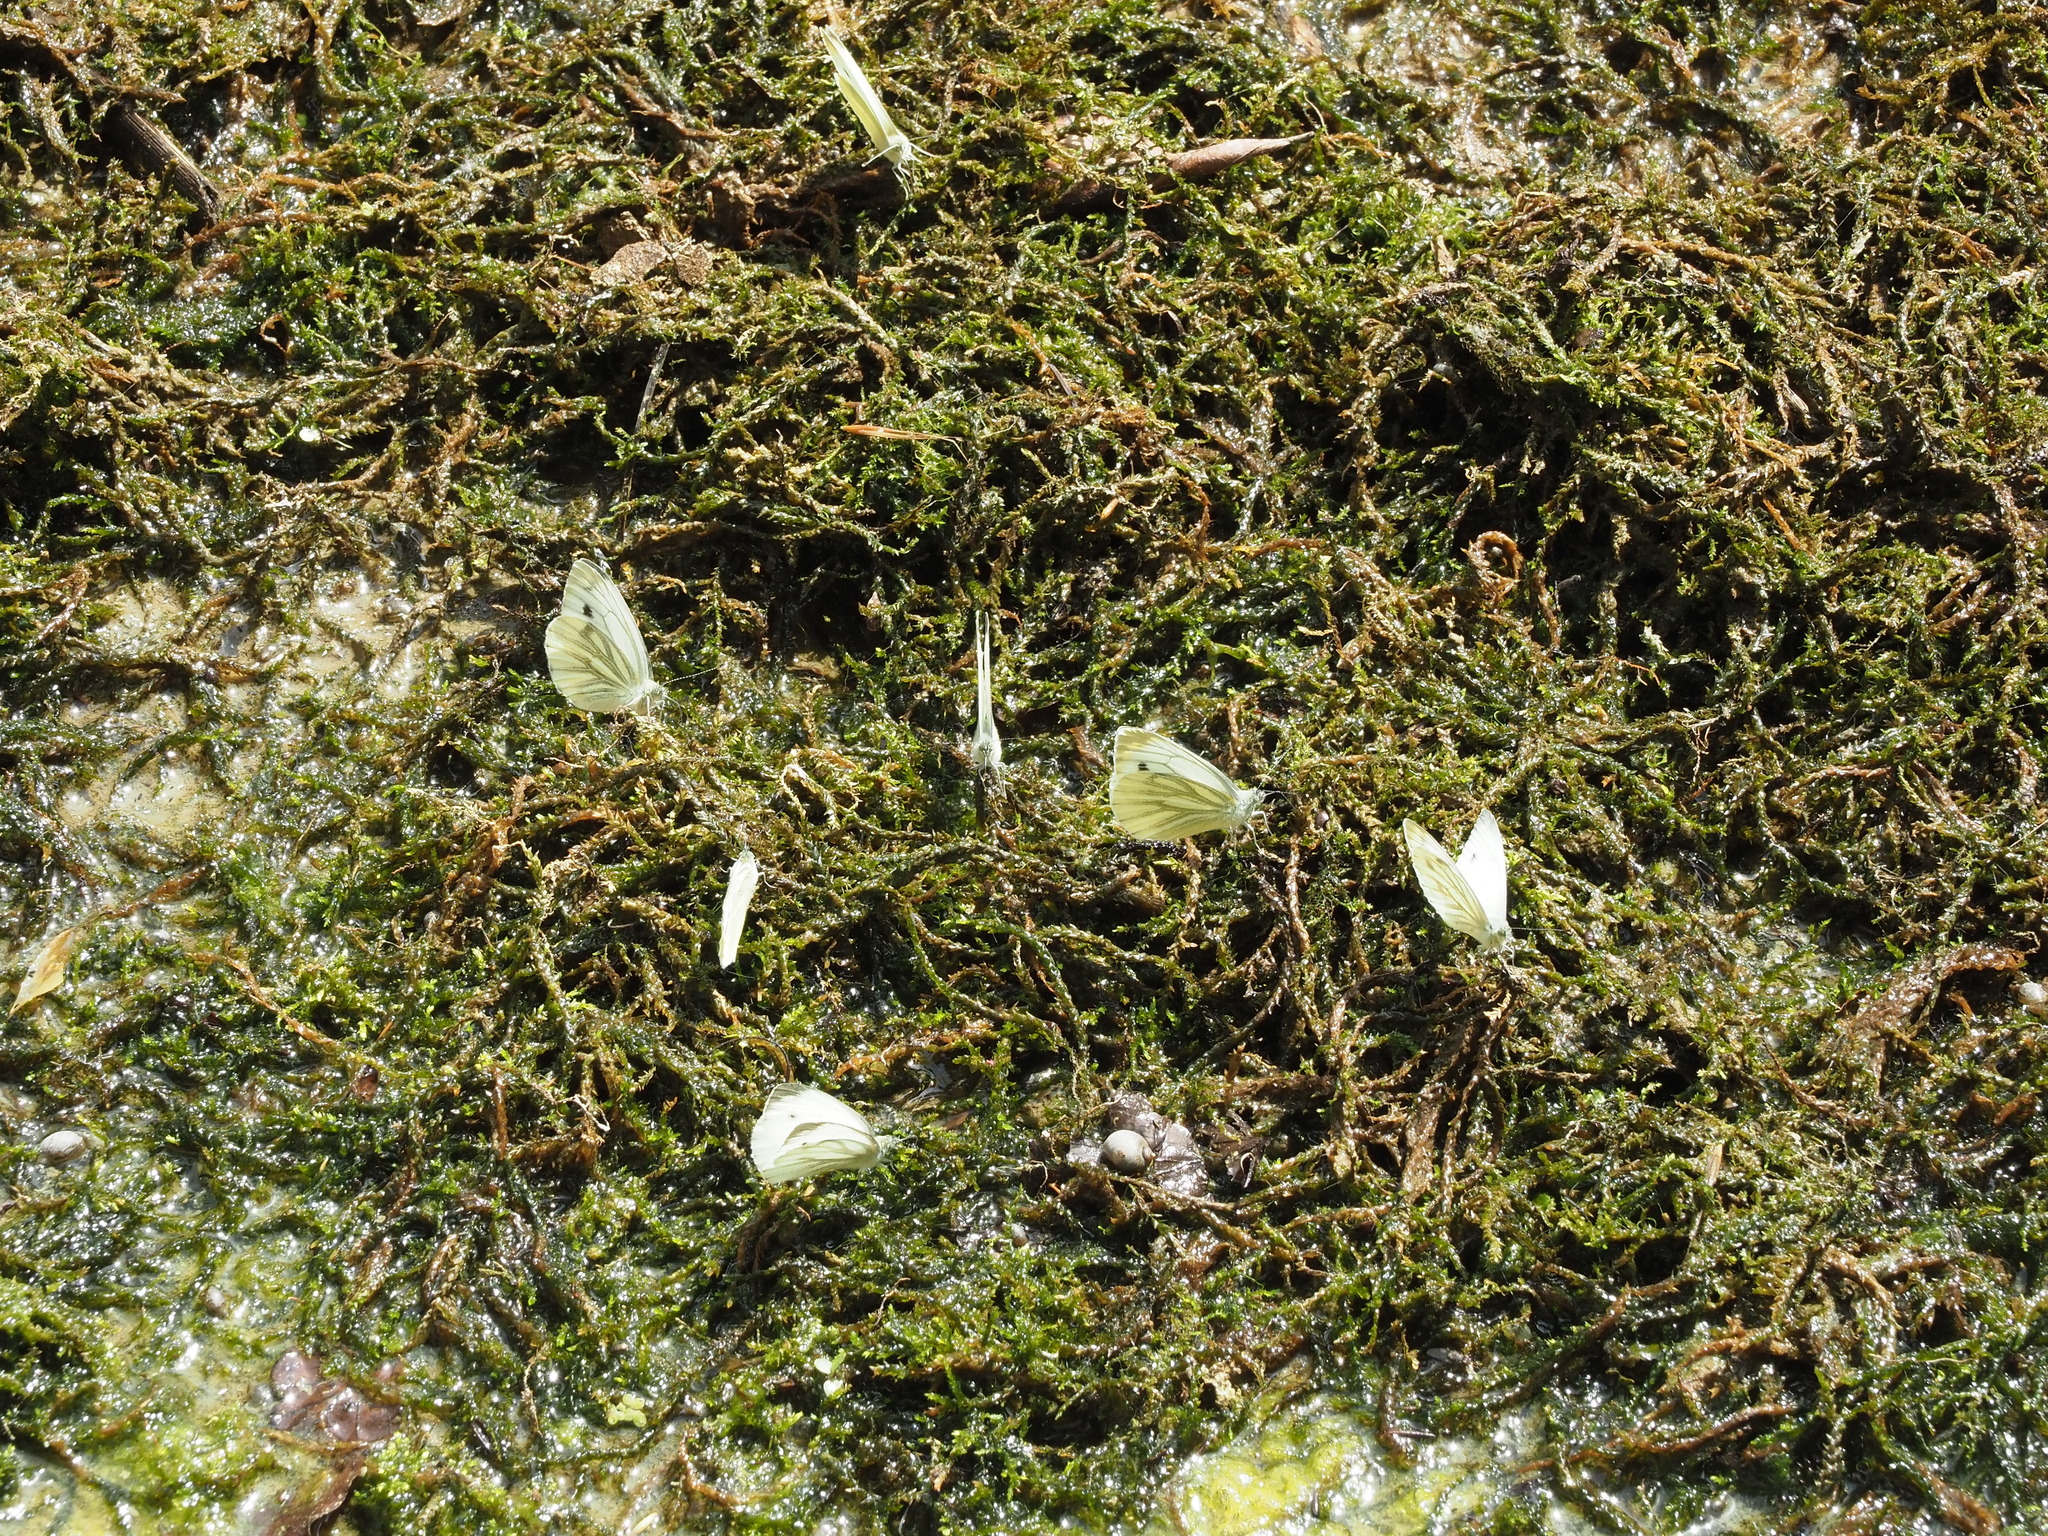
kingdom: Animalia
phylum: Arthropoda
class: Insecta
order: Lepidoptera
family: Pieridae
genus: Pieris
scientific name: Pieris napi
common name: Green-veined white
